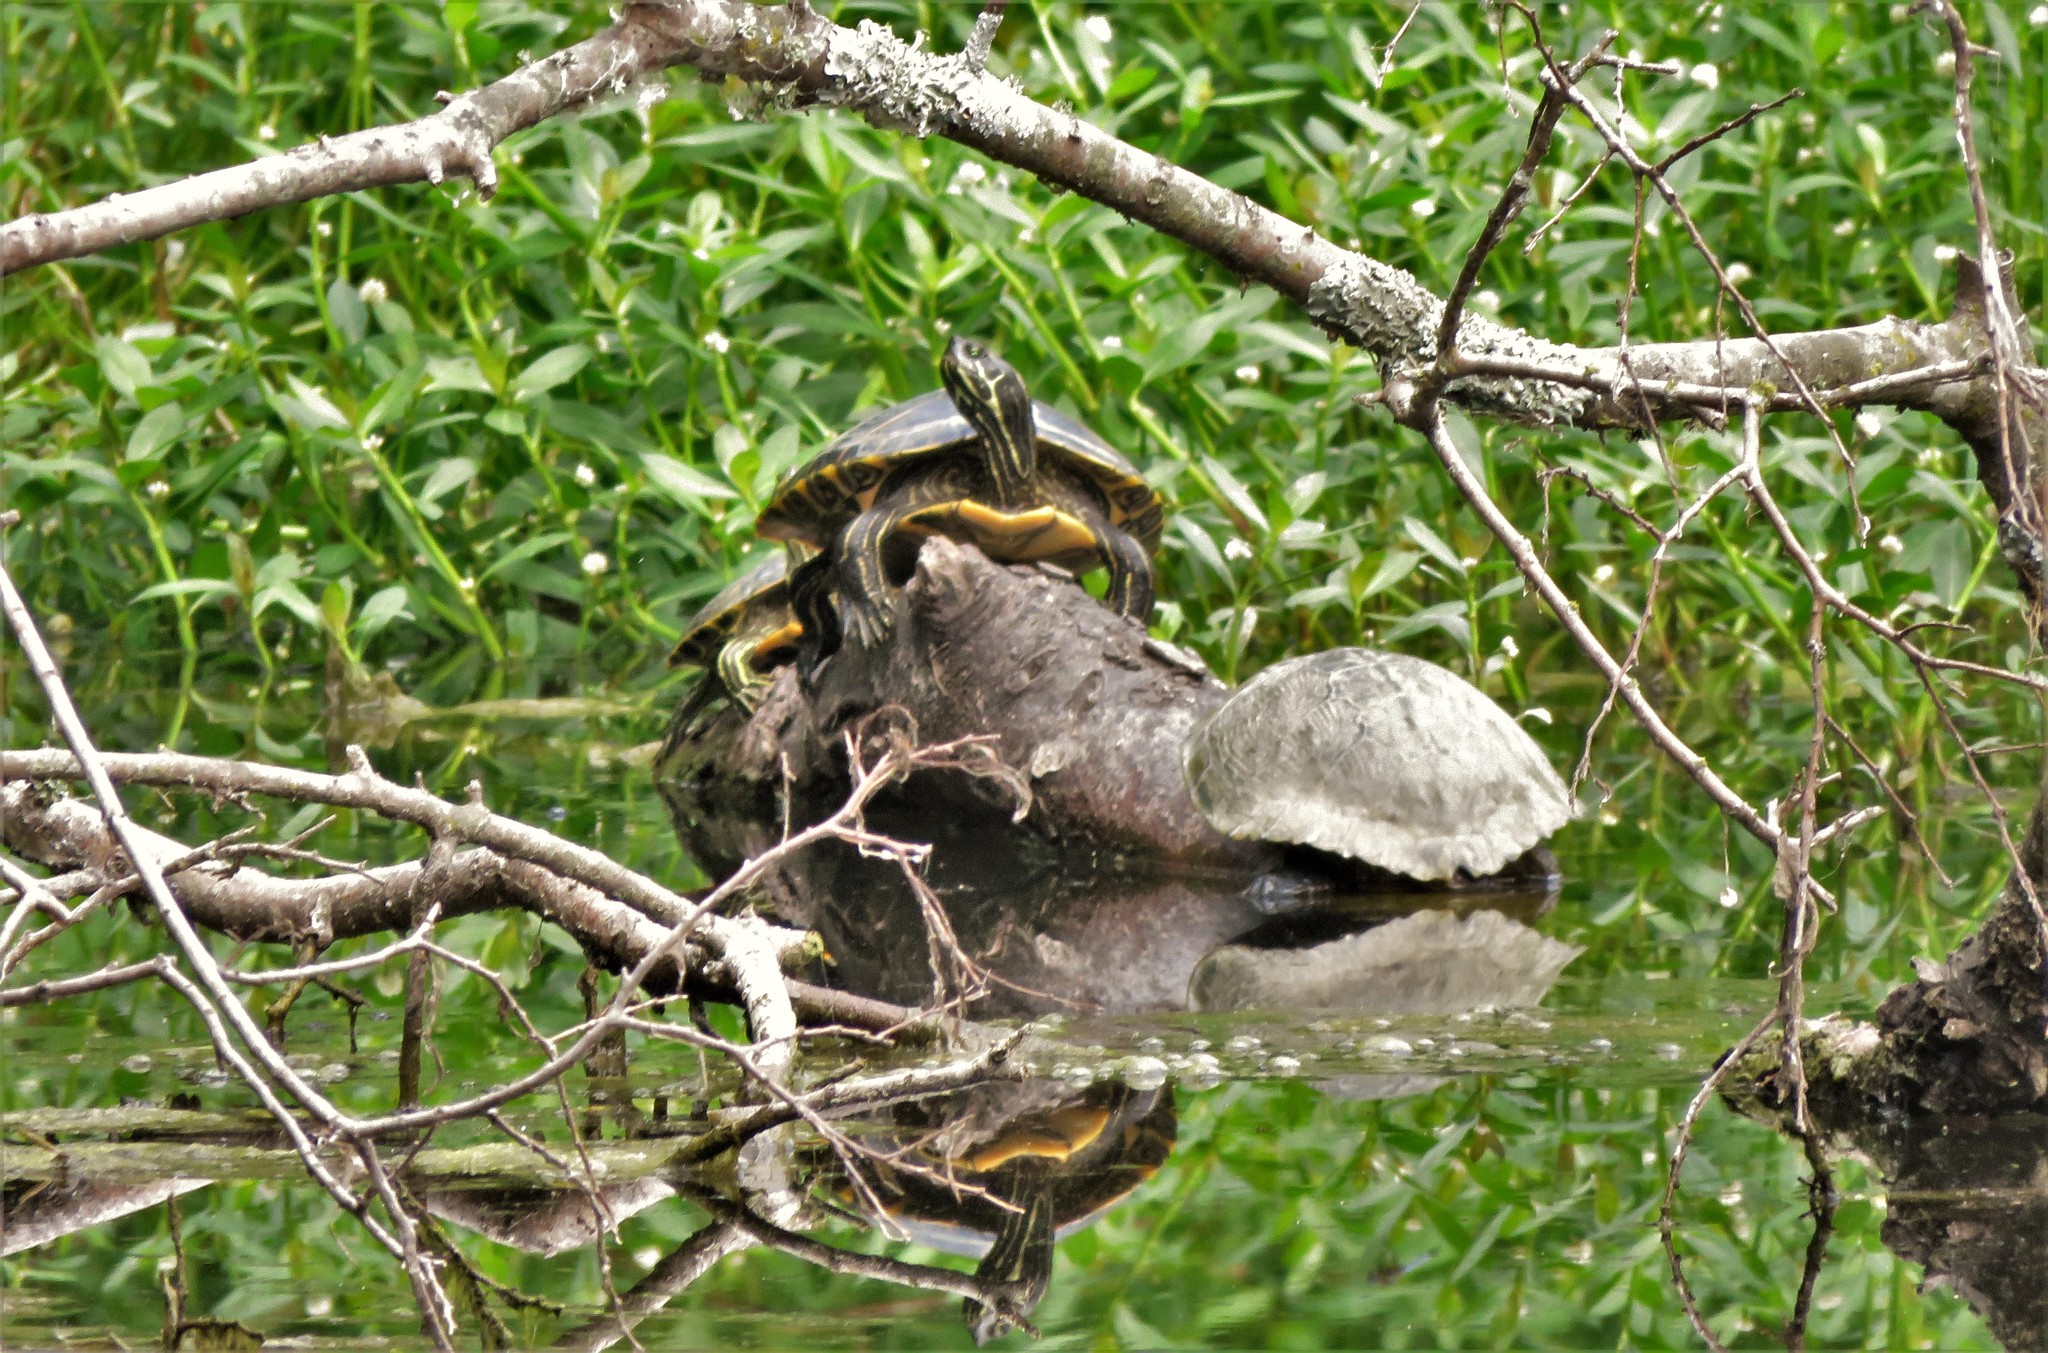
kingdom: Animalia
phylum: Chordata
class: Testudines
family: Emydidae
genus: Pseudemys
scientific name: Pseudemys concinna
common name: Eastern river cooter
